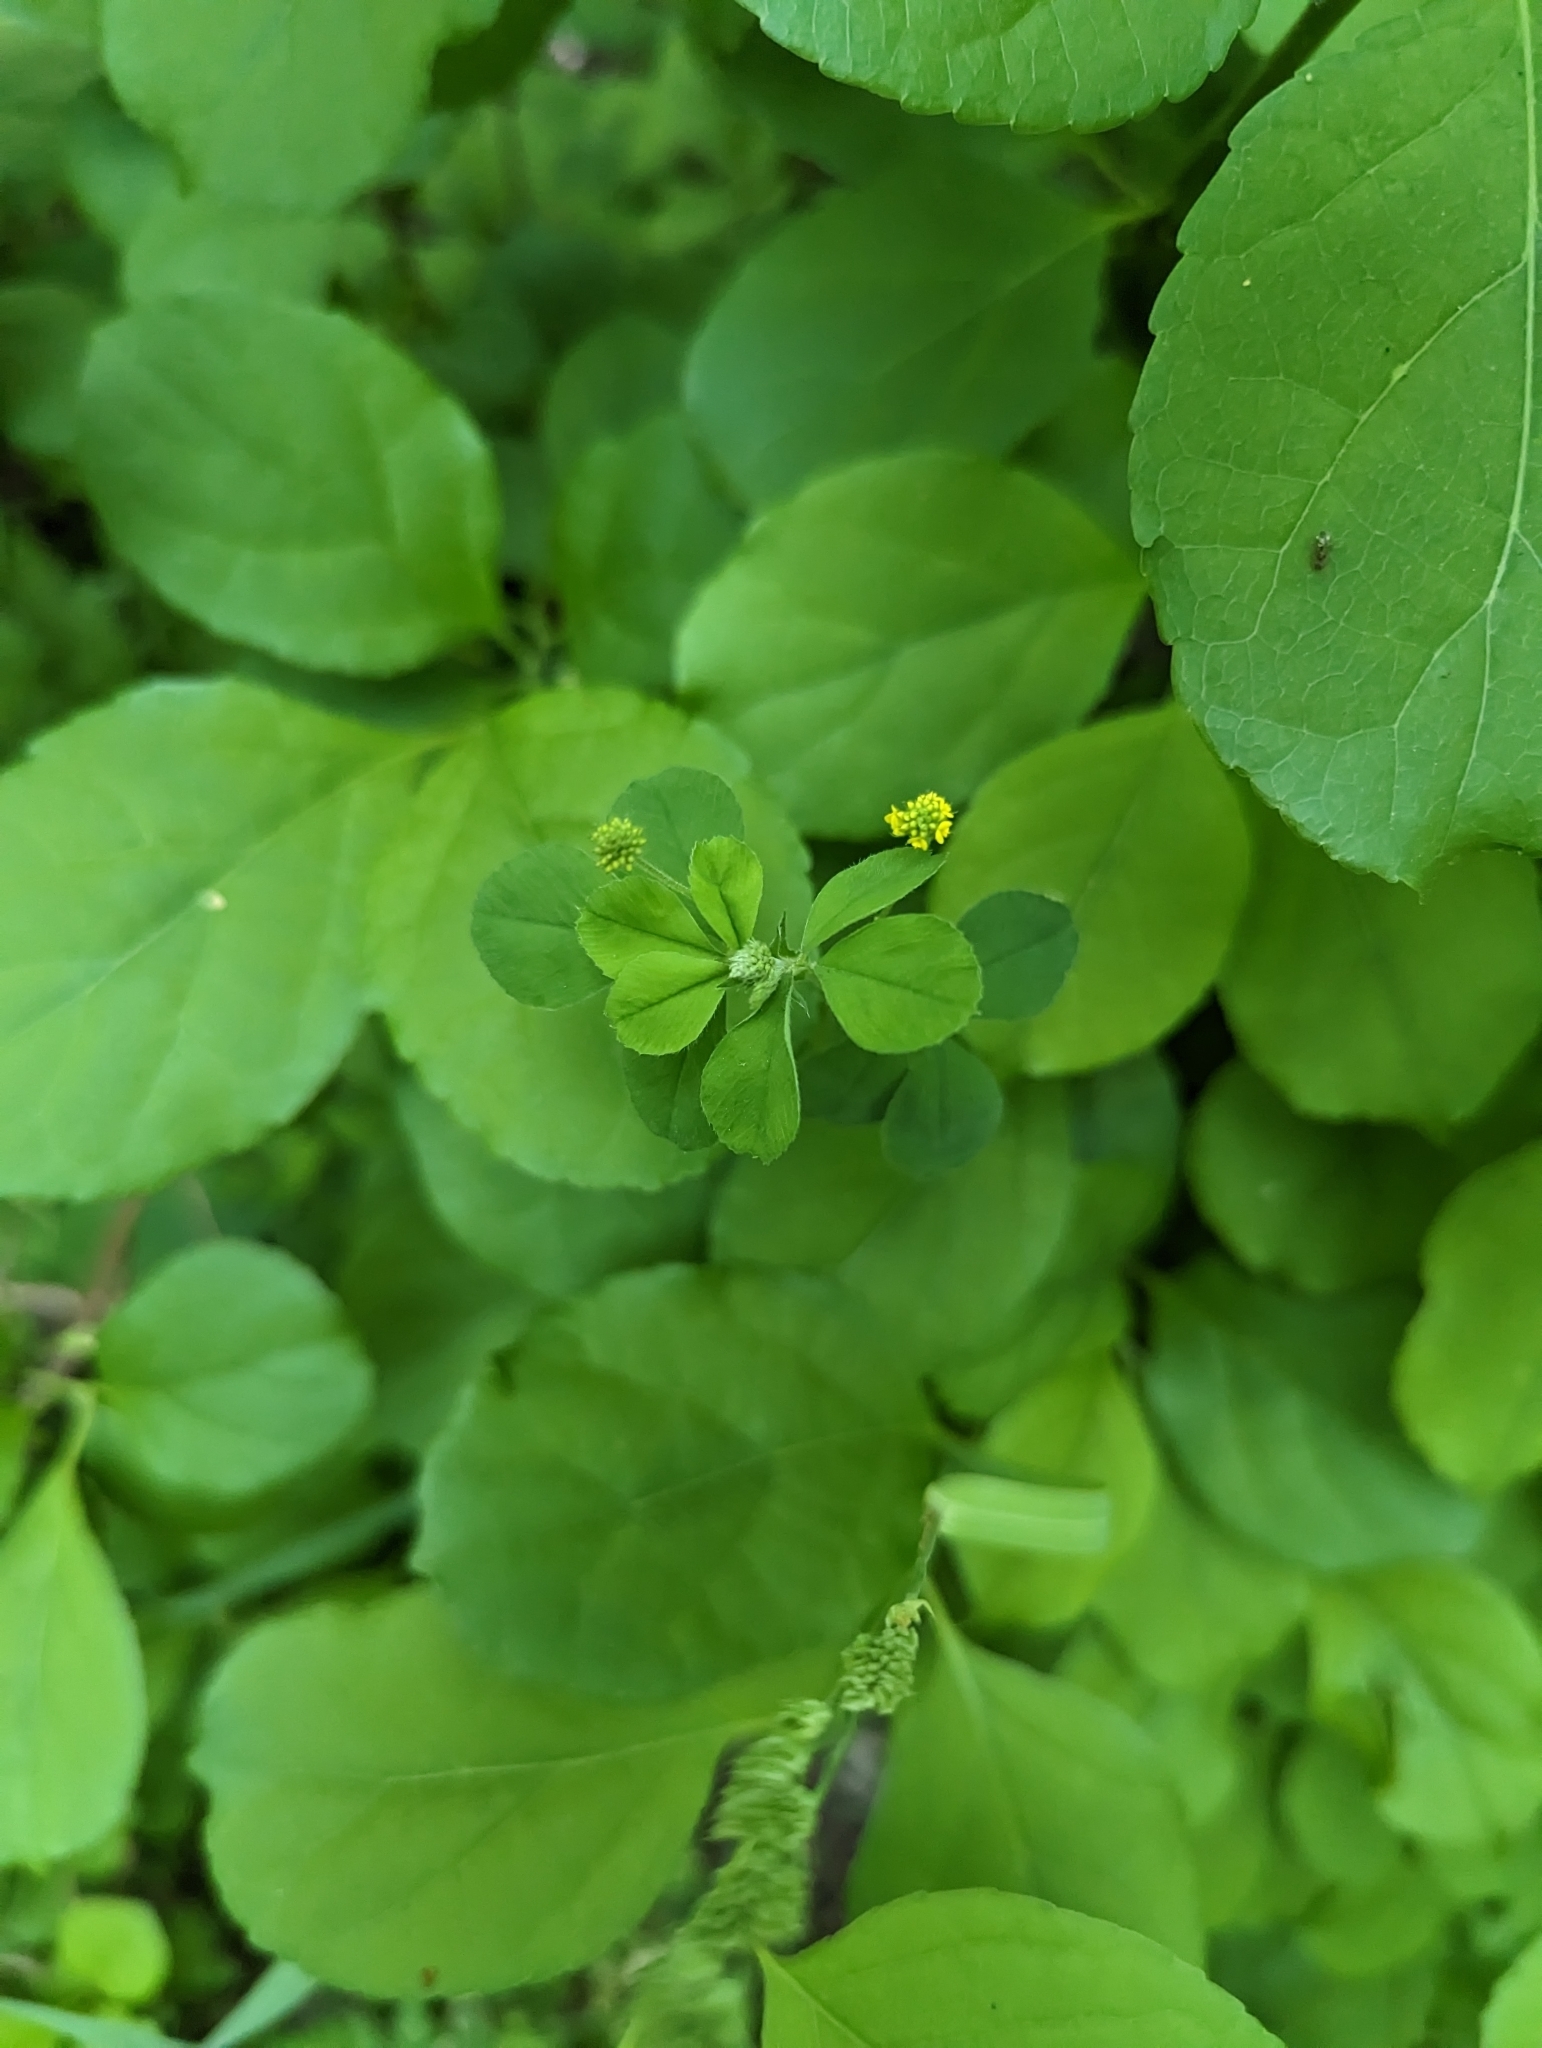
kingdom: Plantae
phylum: Tracheophyta
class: Magnoliopsida
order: Fabales
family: Fabaceae
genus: Medicago
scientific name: Medicago lupulina
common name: Black medick
